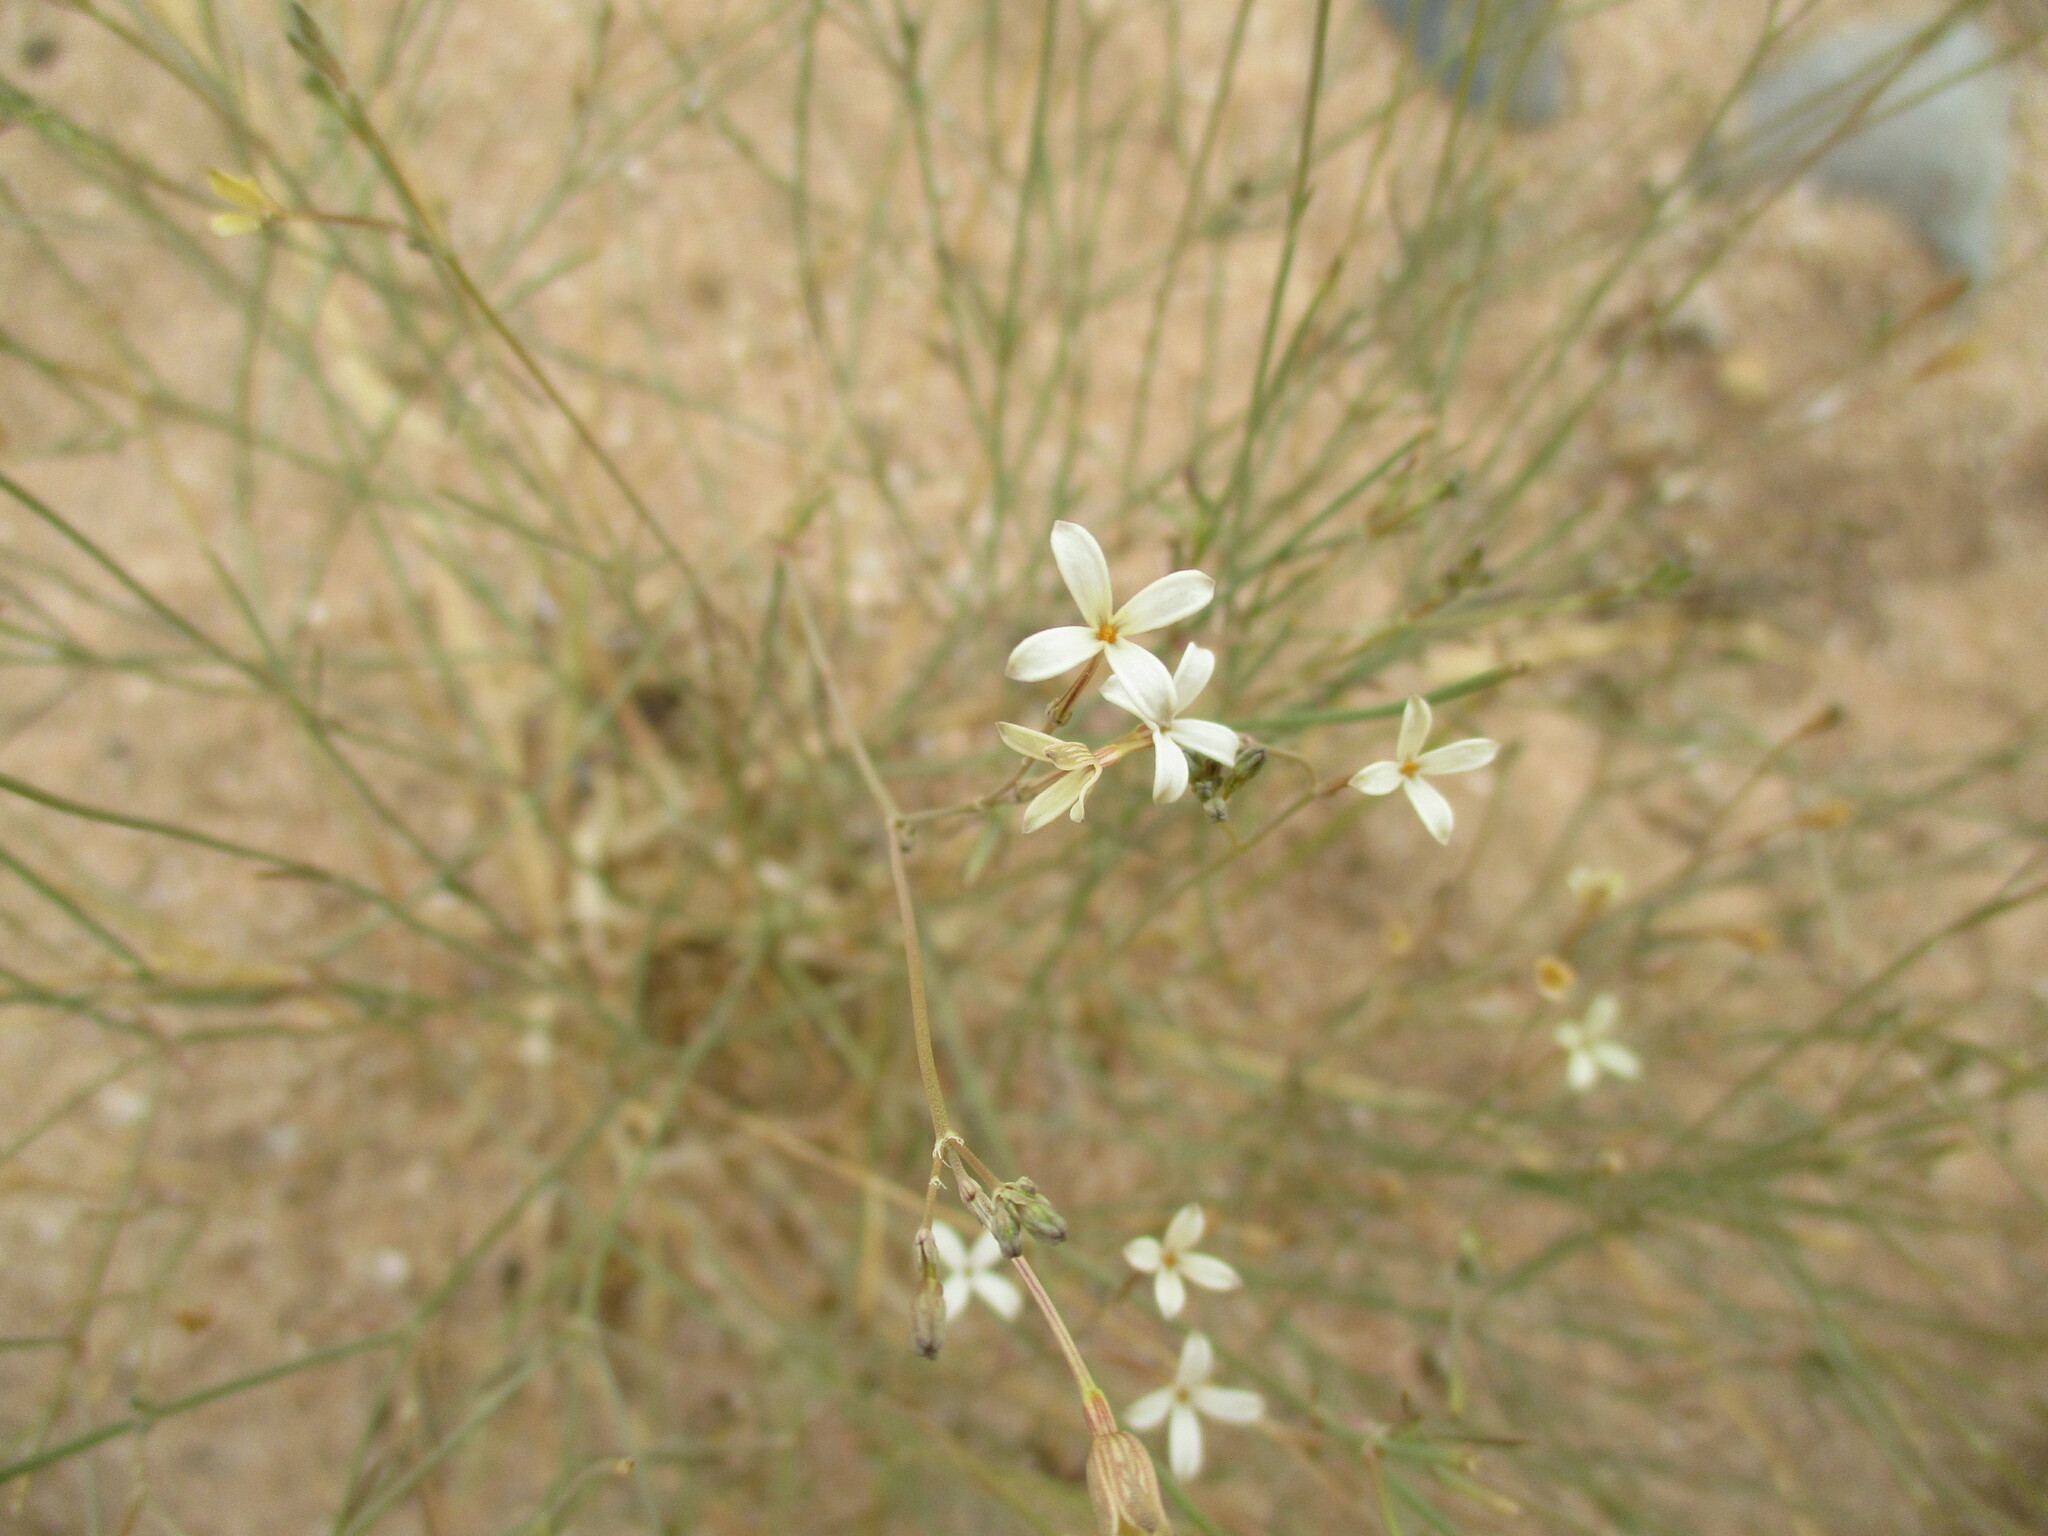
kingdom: Plantae
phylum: Tracheophyta
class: Magnoliopsida
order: Gentianales
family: Rubiaceae
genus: Kohautia
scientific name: Kohautia caespitosa
